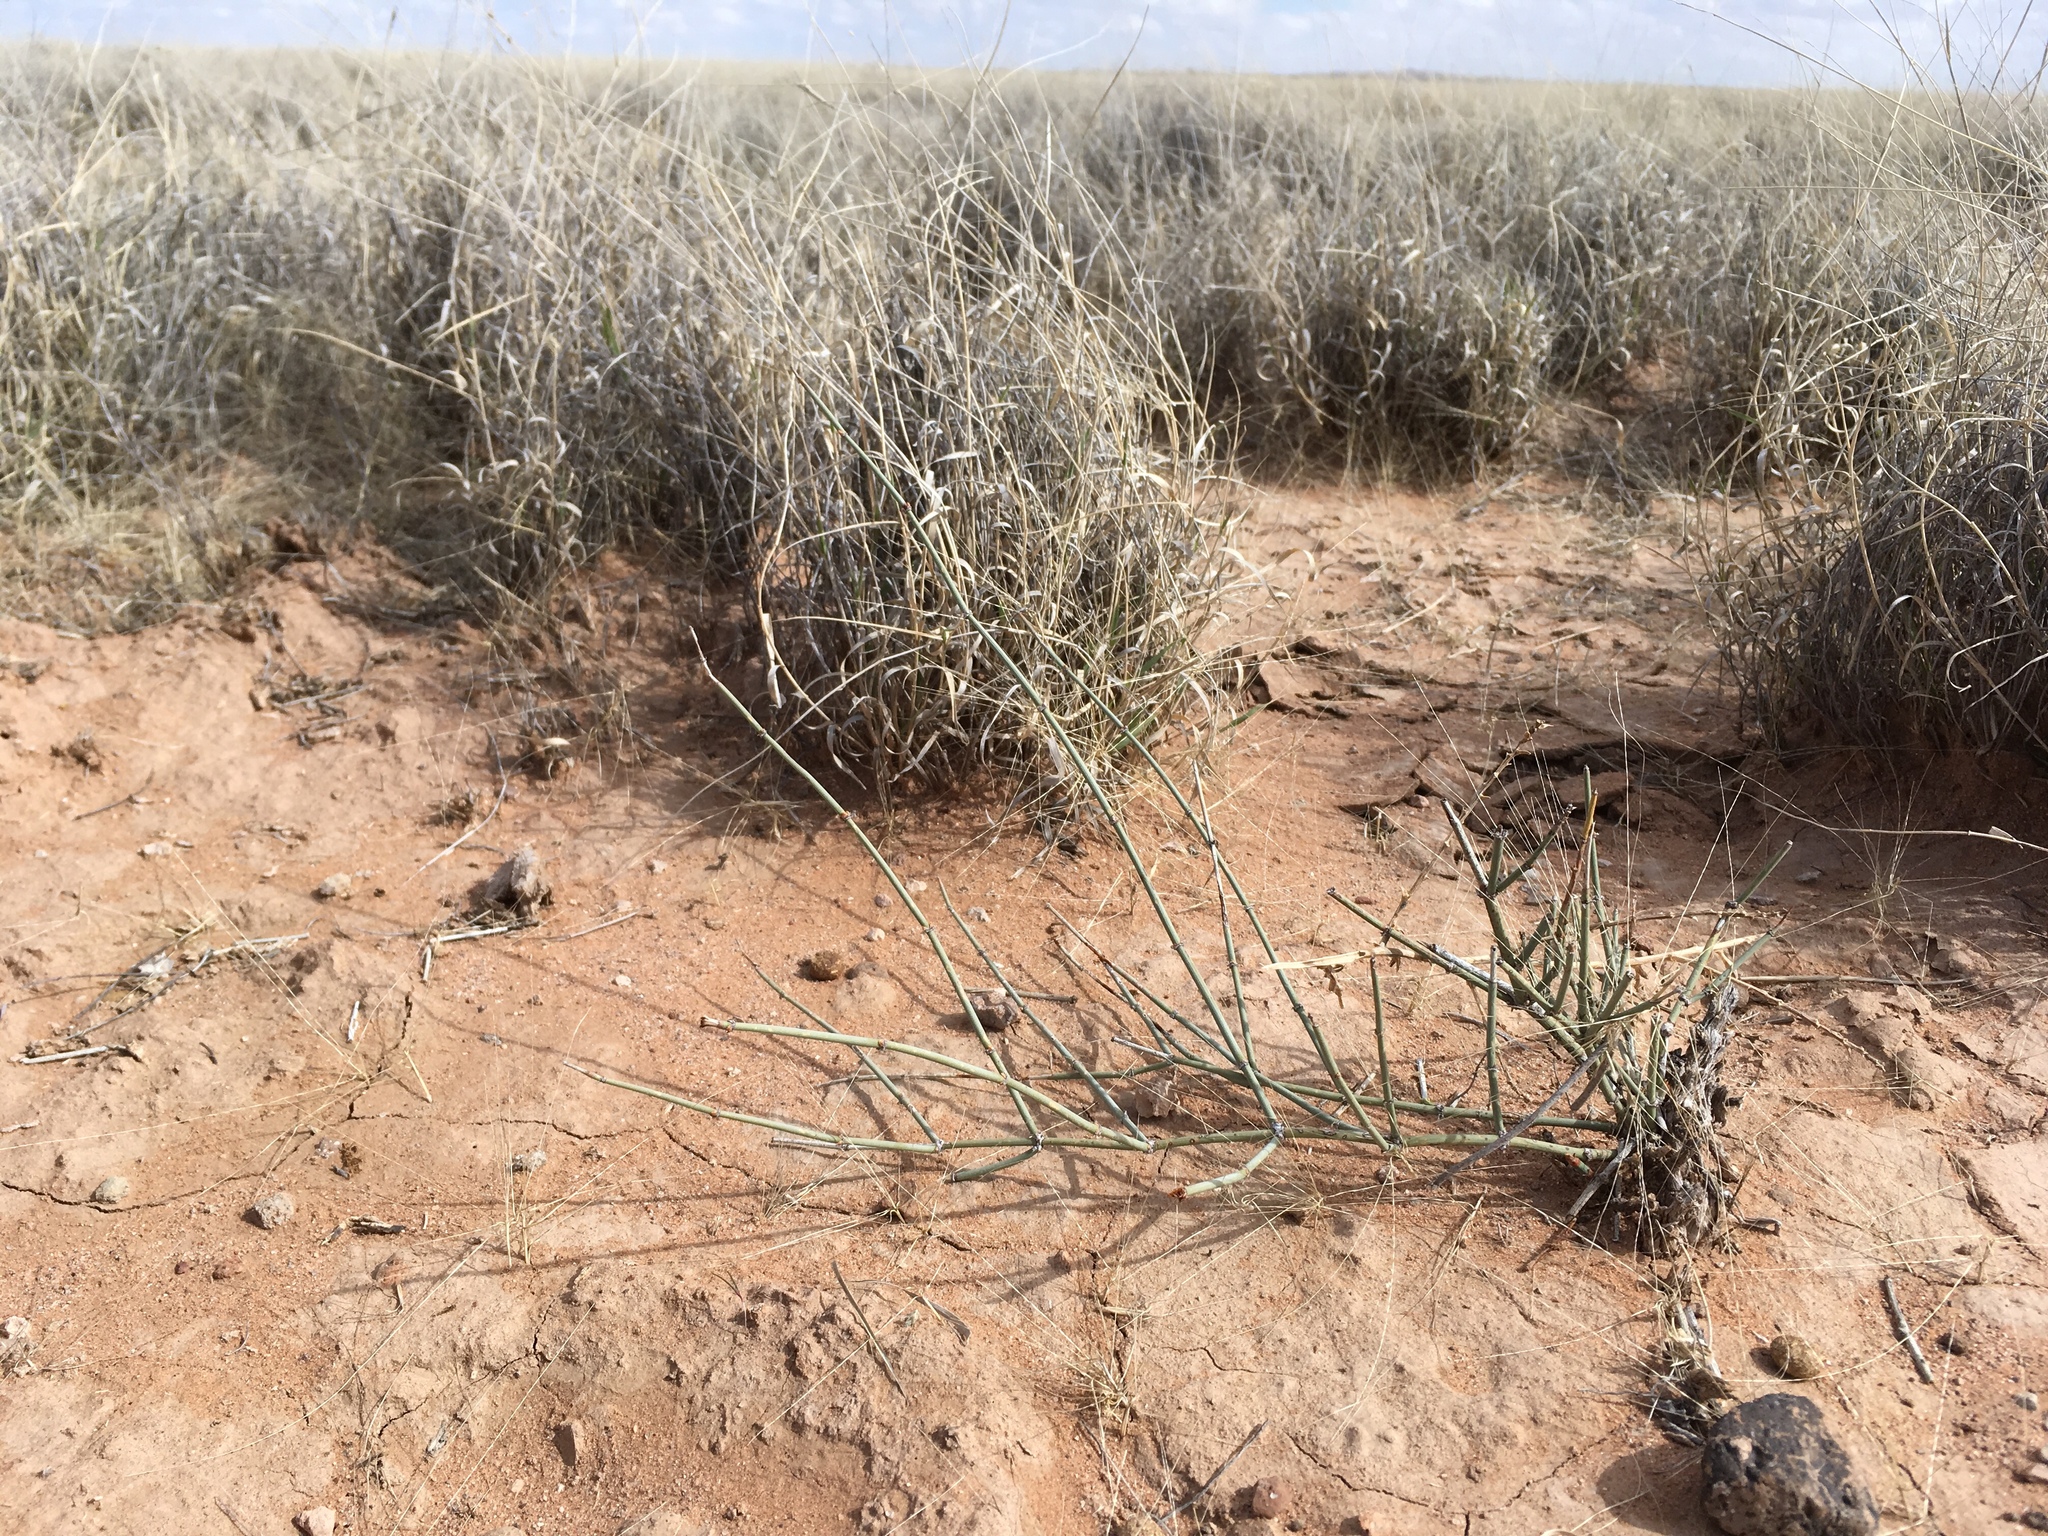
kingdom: Plantae
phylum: Tracheophyta
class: Gnetopsida
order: Ephedrales
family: Ephedraceae
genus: Ephedra
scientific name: Ephedra torreyana
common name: Torrey ephedra
